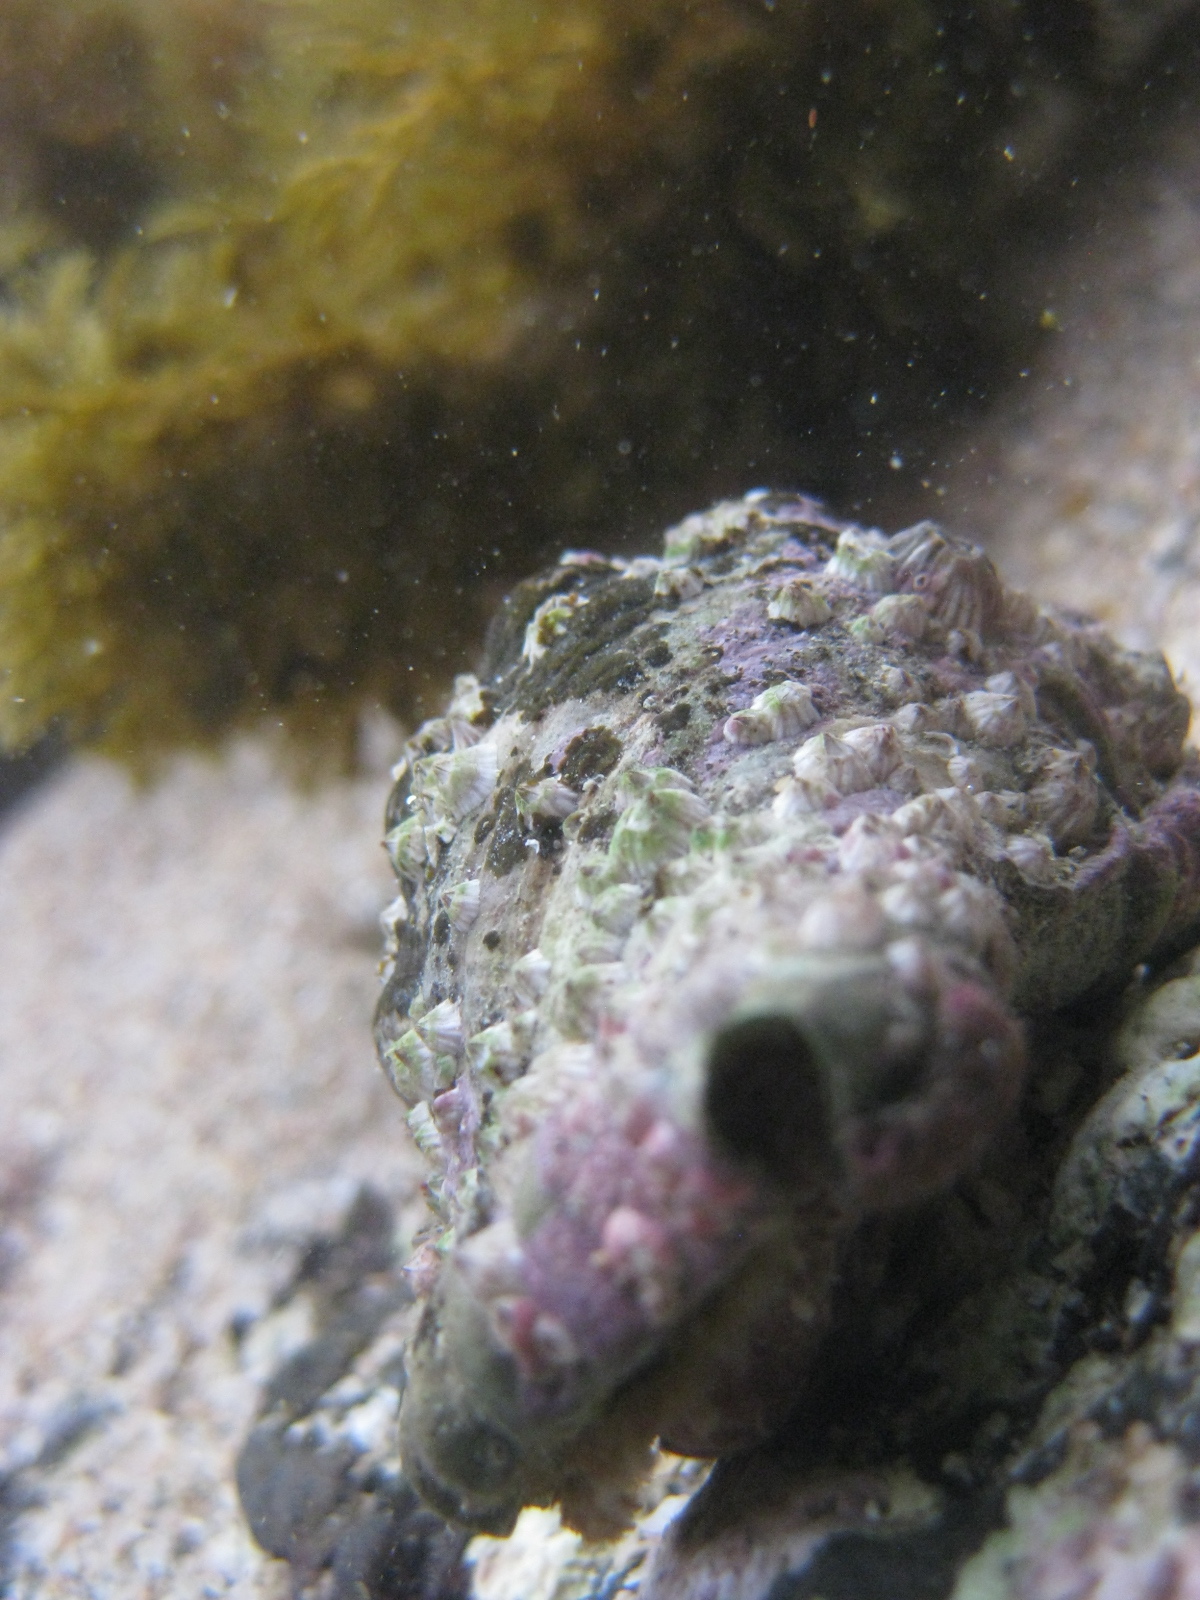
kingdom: Animalia
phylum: Arthropoda
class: Maxillopoda
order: Sessilia
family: Balanidae
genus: Balanus
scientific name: Balanus trigonus
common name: Triangle barnacle
